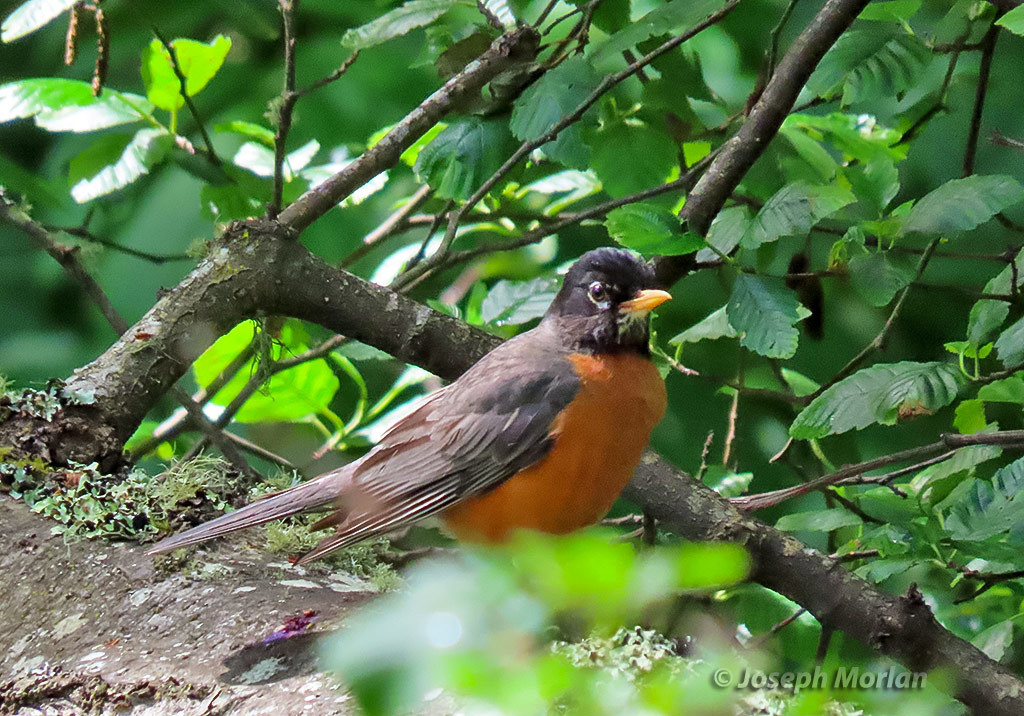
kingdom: Animalia
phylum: Chordata
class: Aves
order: Passeriformes
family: Turdidae
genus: Turdus
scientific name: Turdus migratorius
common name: American robin
